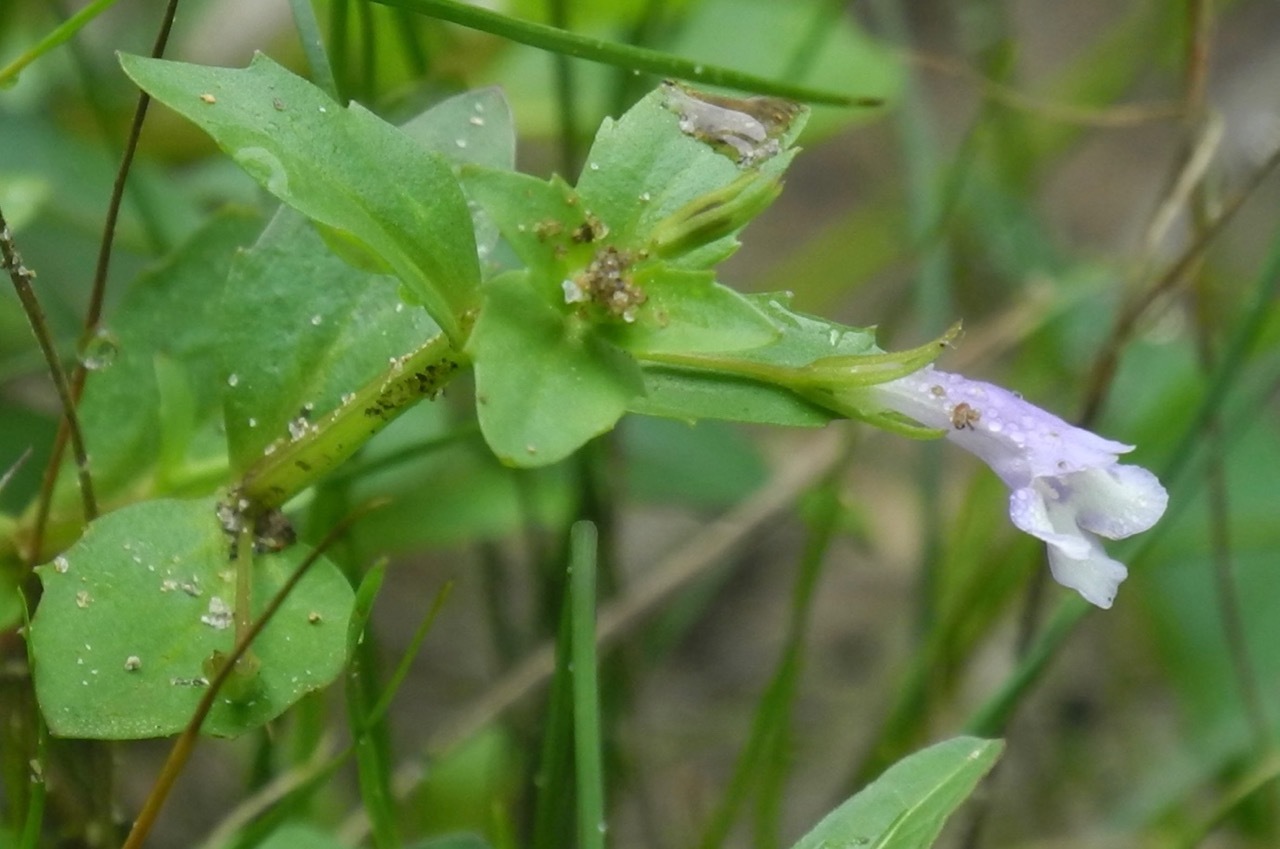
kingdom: Plantae
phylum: Tracheophyta
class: Magnoliopsida
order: Lamiales
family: Linderniaceae
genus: Lindernia
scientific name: Lindernia dubia
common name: Annual false pimpernel
